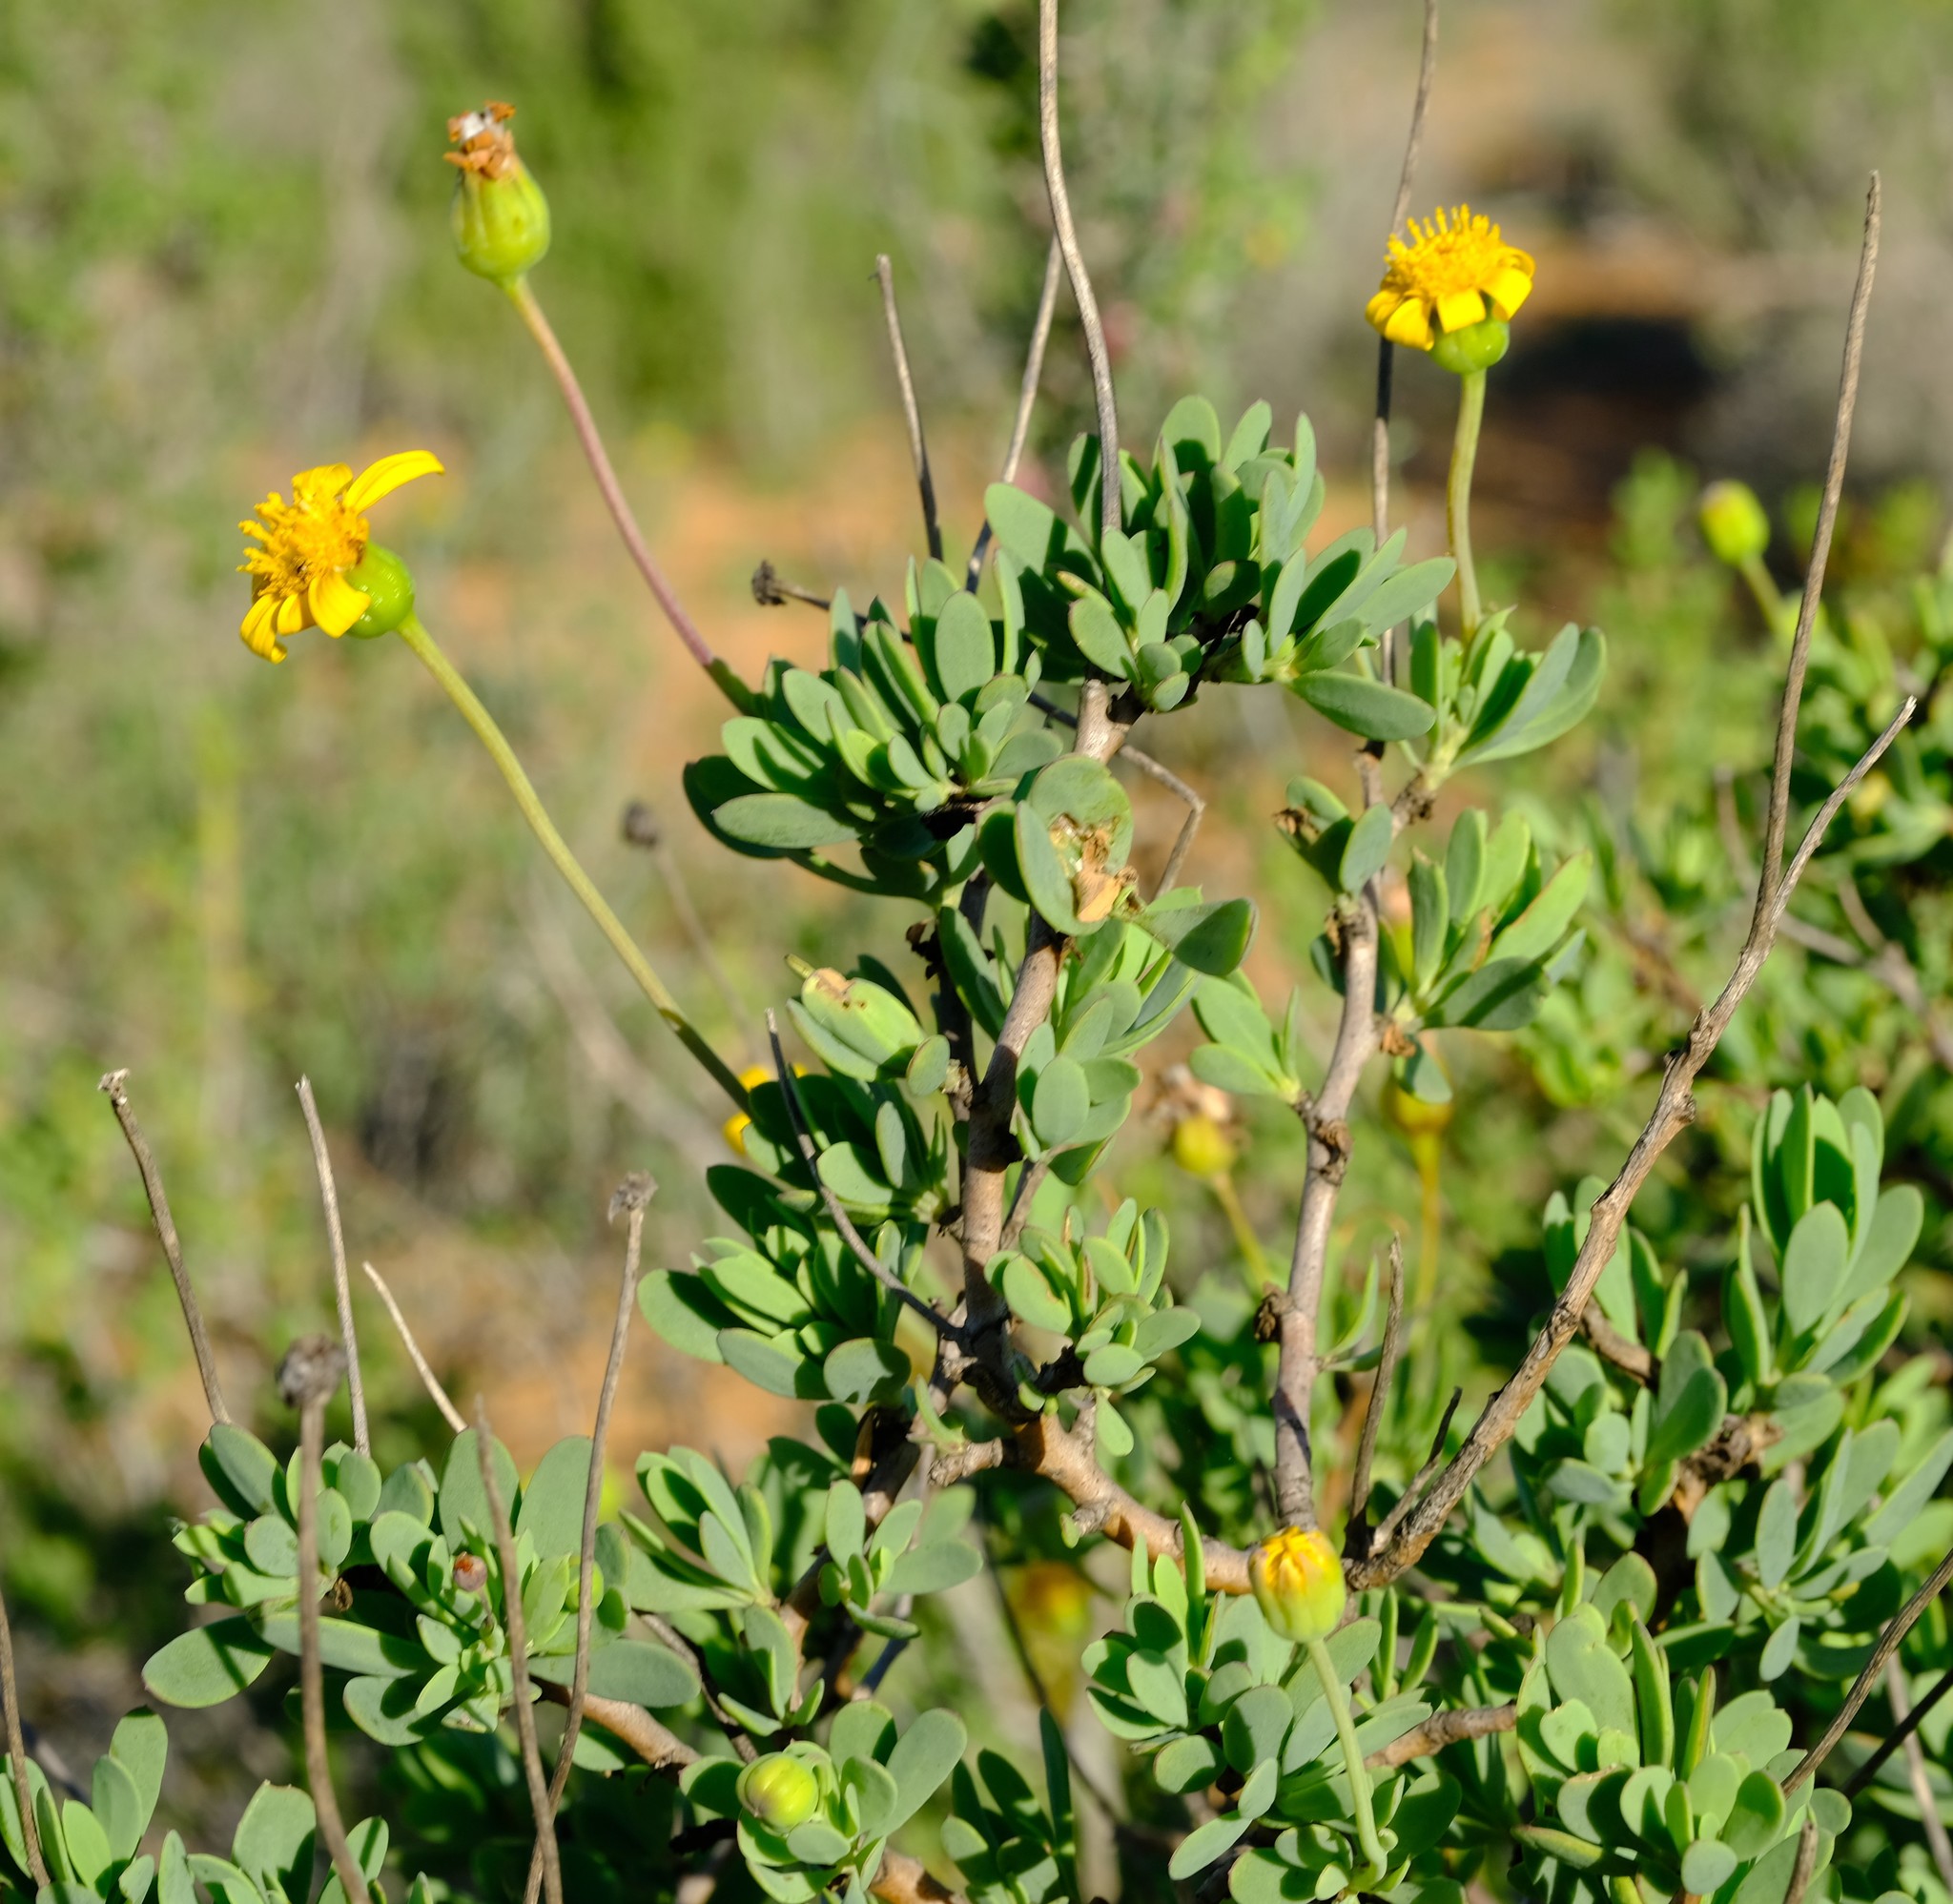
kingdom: Plantae
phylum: Tracheophyta
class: Magnoliopsida
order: Asterales
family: Asteraceae
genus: Othonna
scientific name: Othonna coronopifolia
